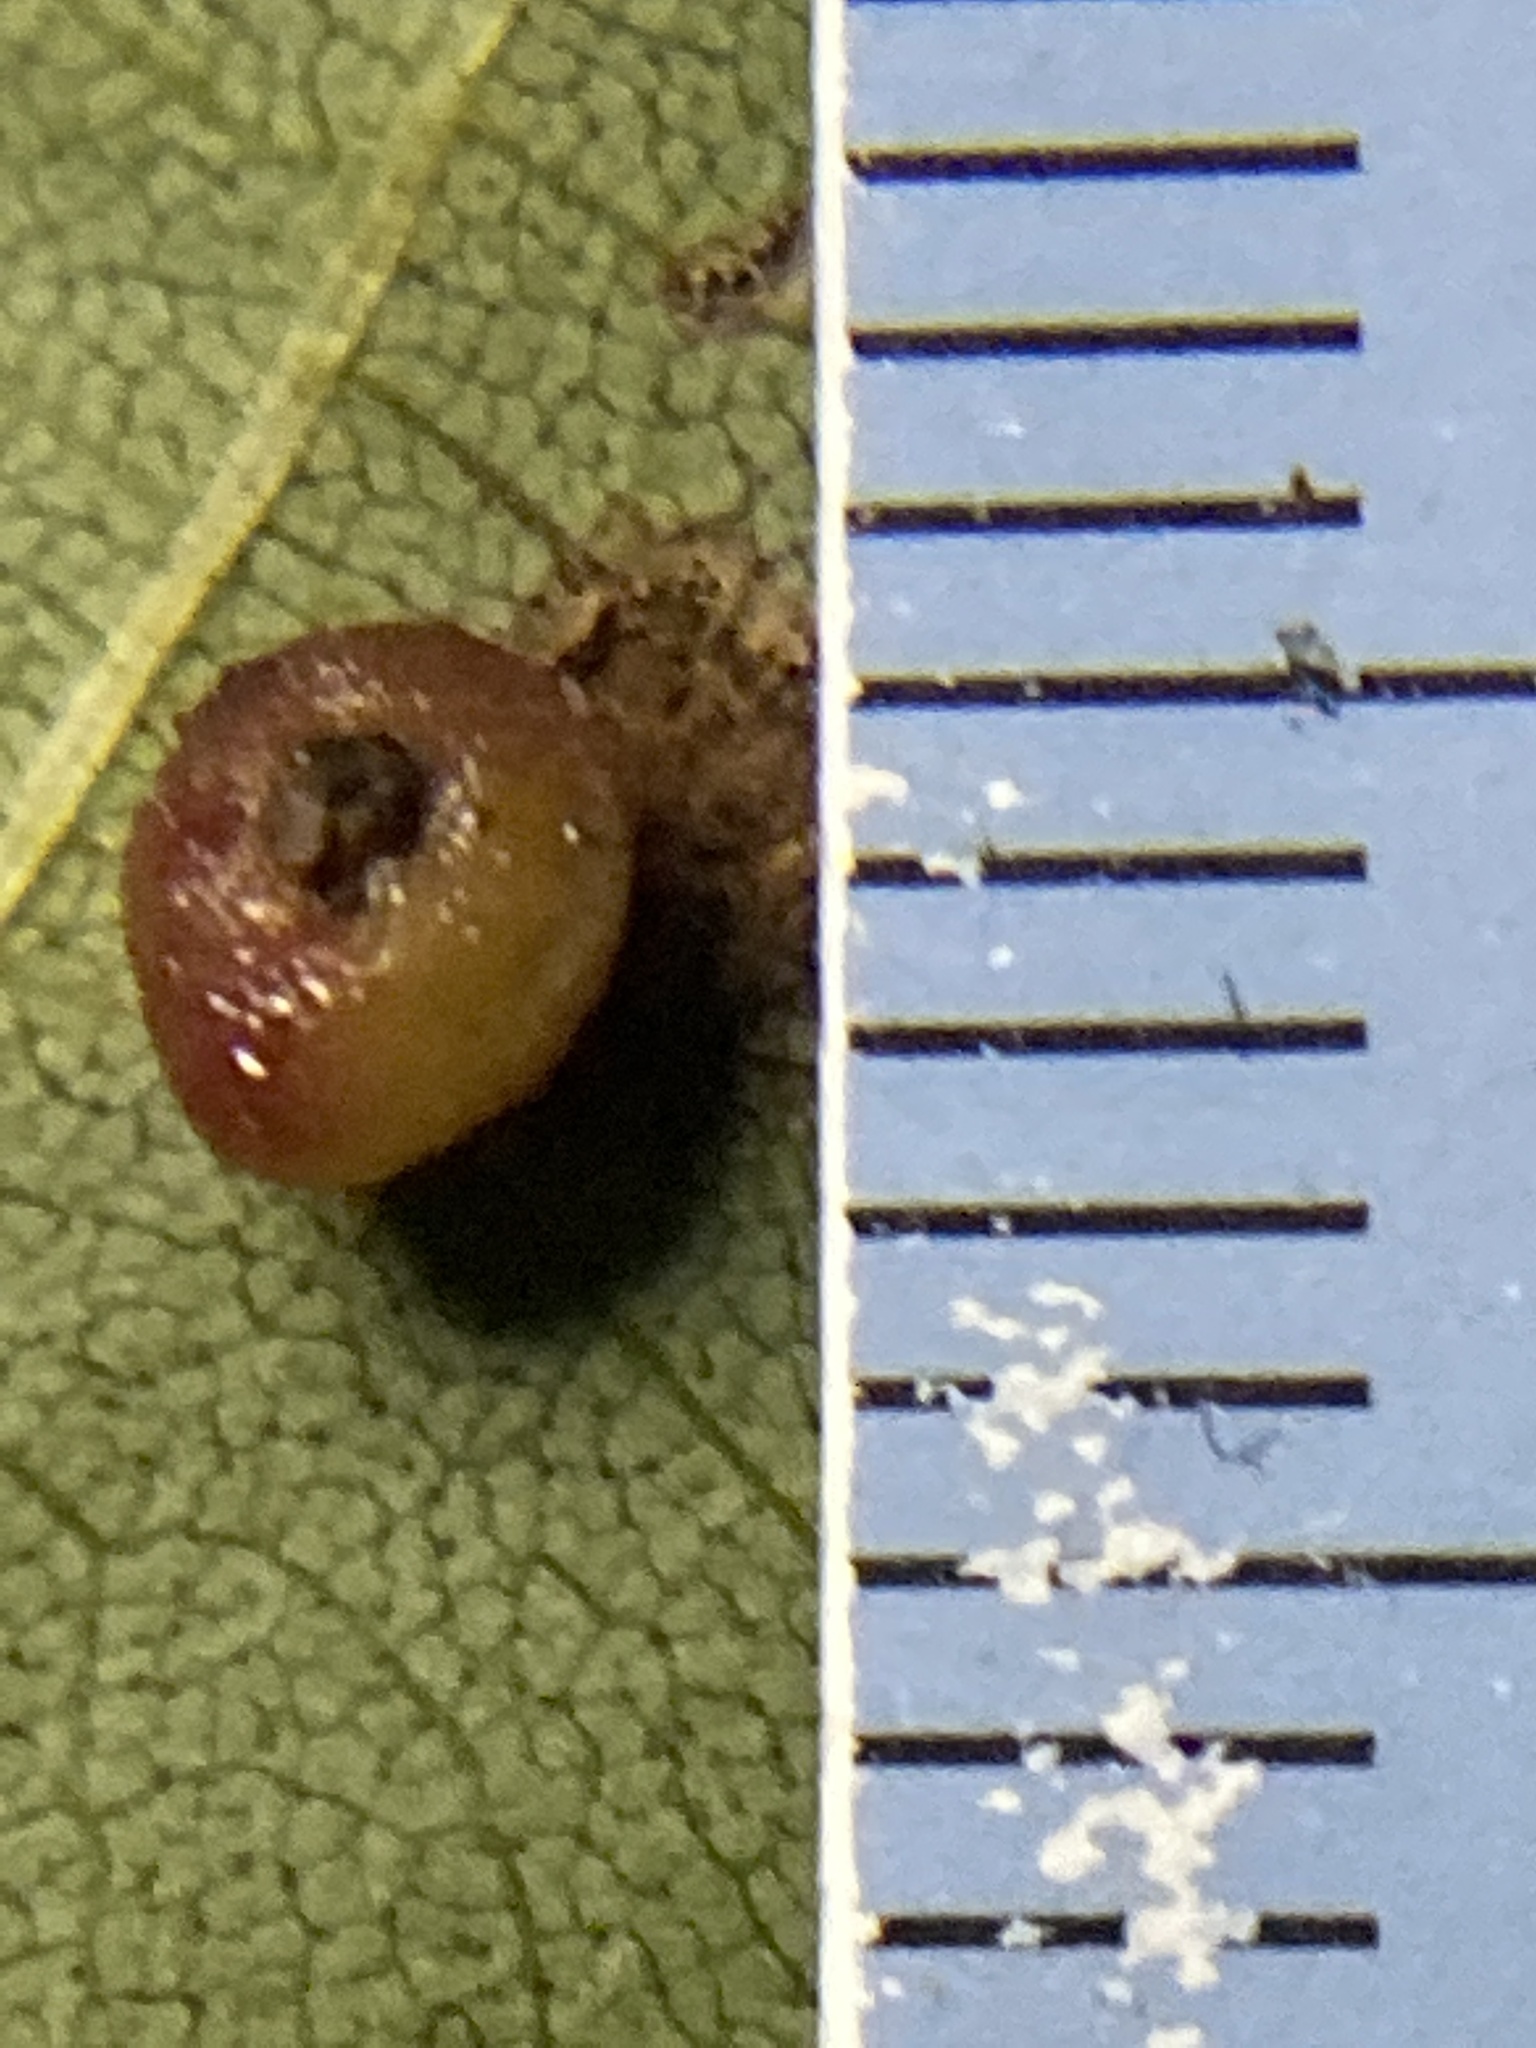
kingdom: Animalia
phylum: Arthropoda
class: Insecta
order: Diptera
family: Cecidomyiidae
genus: Caryomyia
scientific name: Caryomyia caryae
